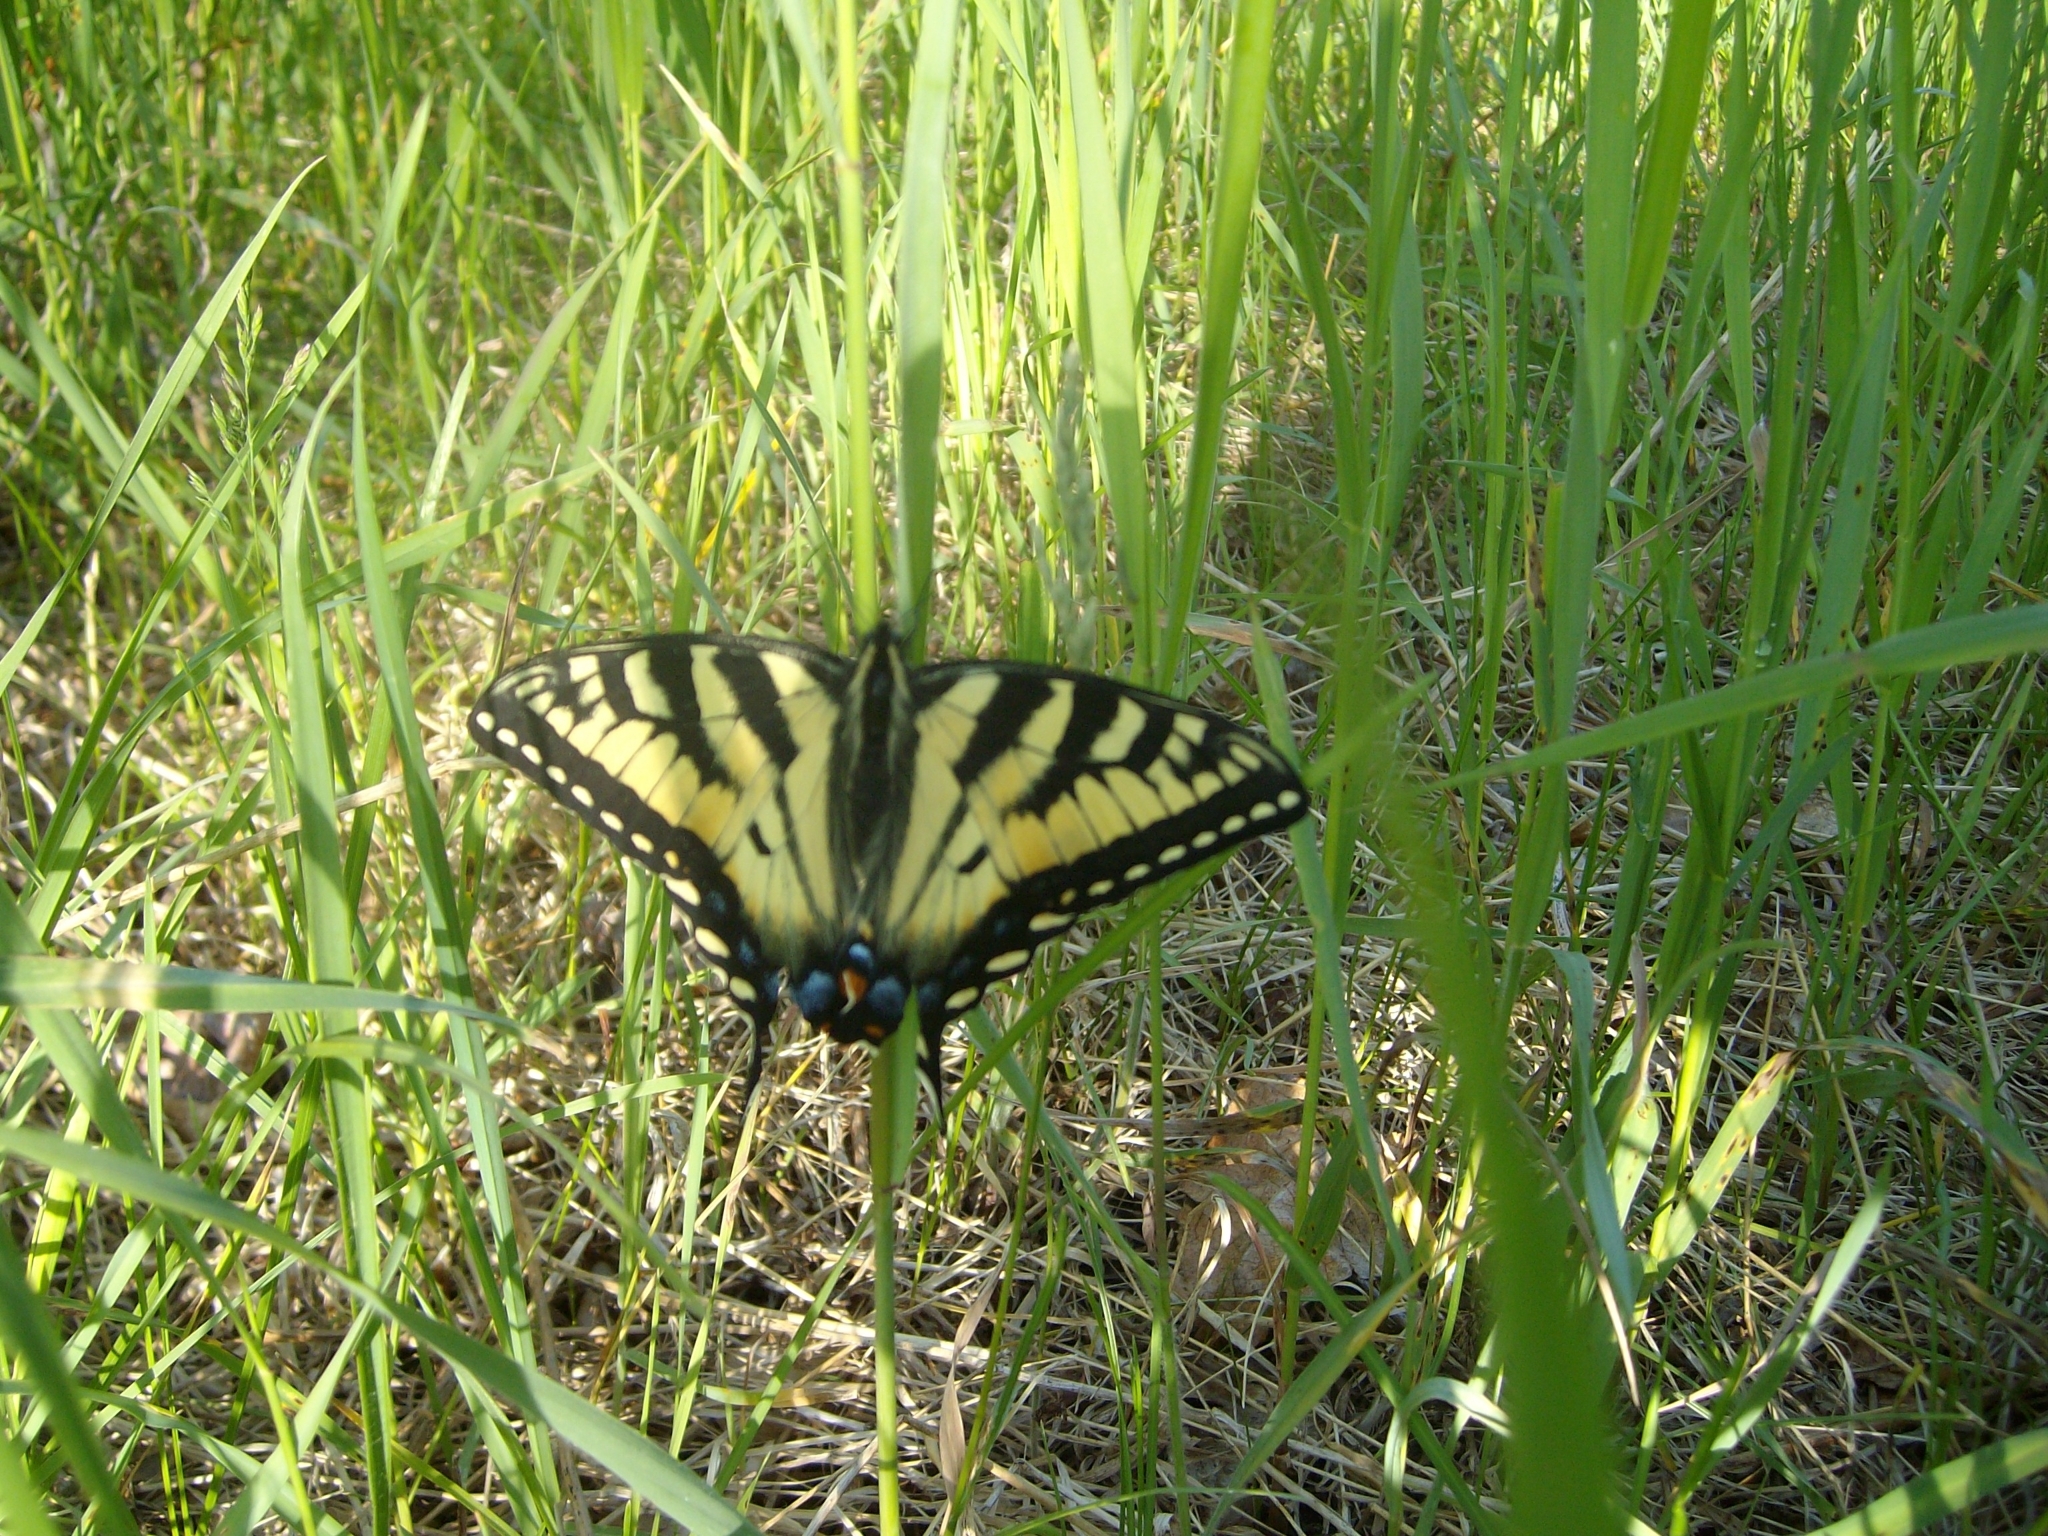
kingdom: Animalia
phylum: Arthropoda
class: Insecta
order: Lepidoptera
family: Papilionidae
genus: Papilio
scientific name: Papilio canadensis
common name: Canadian tiger swallowtail
